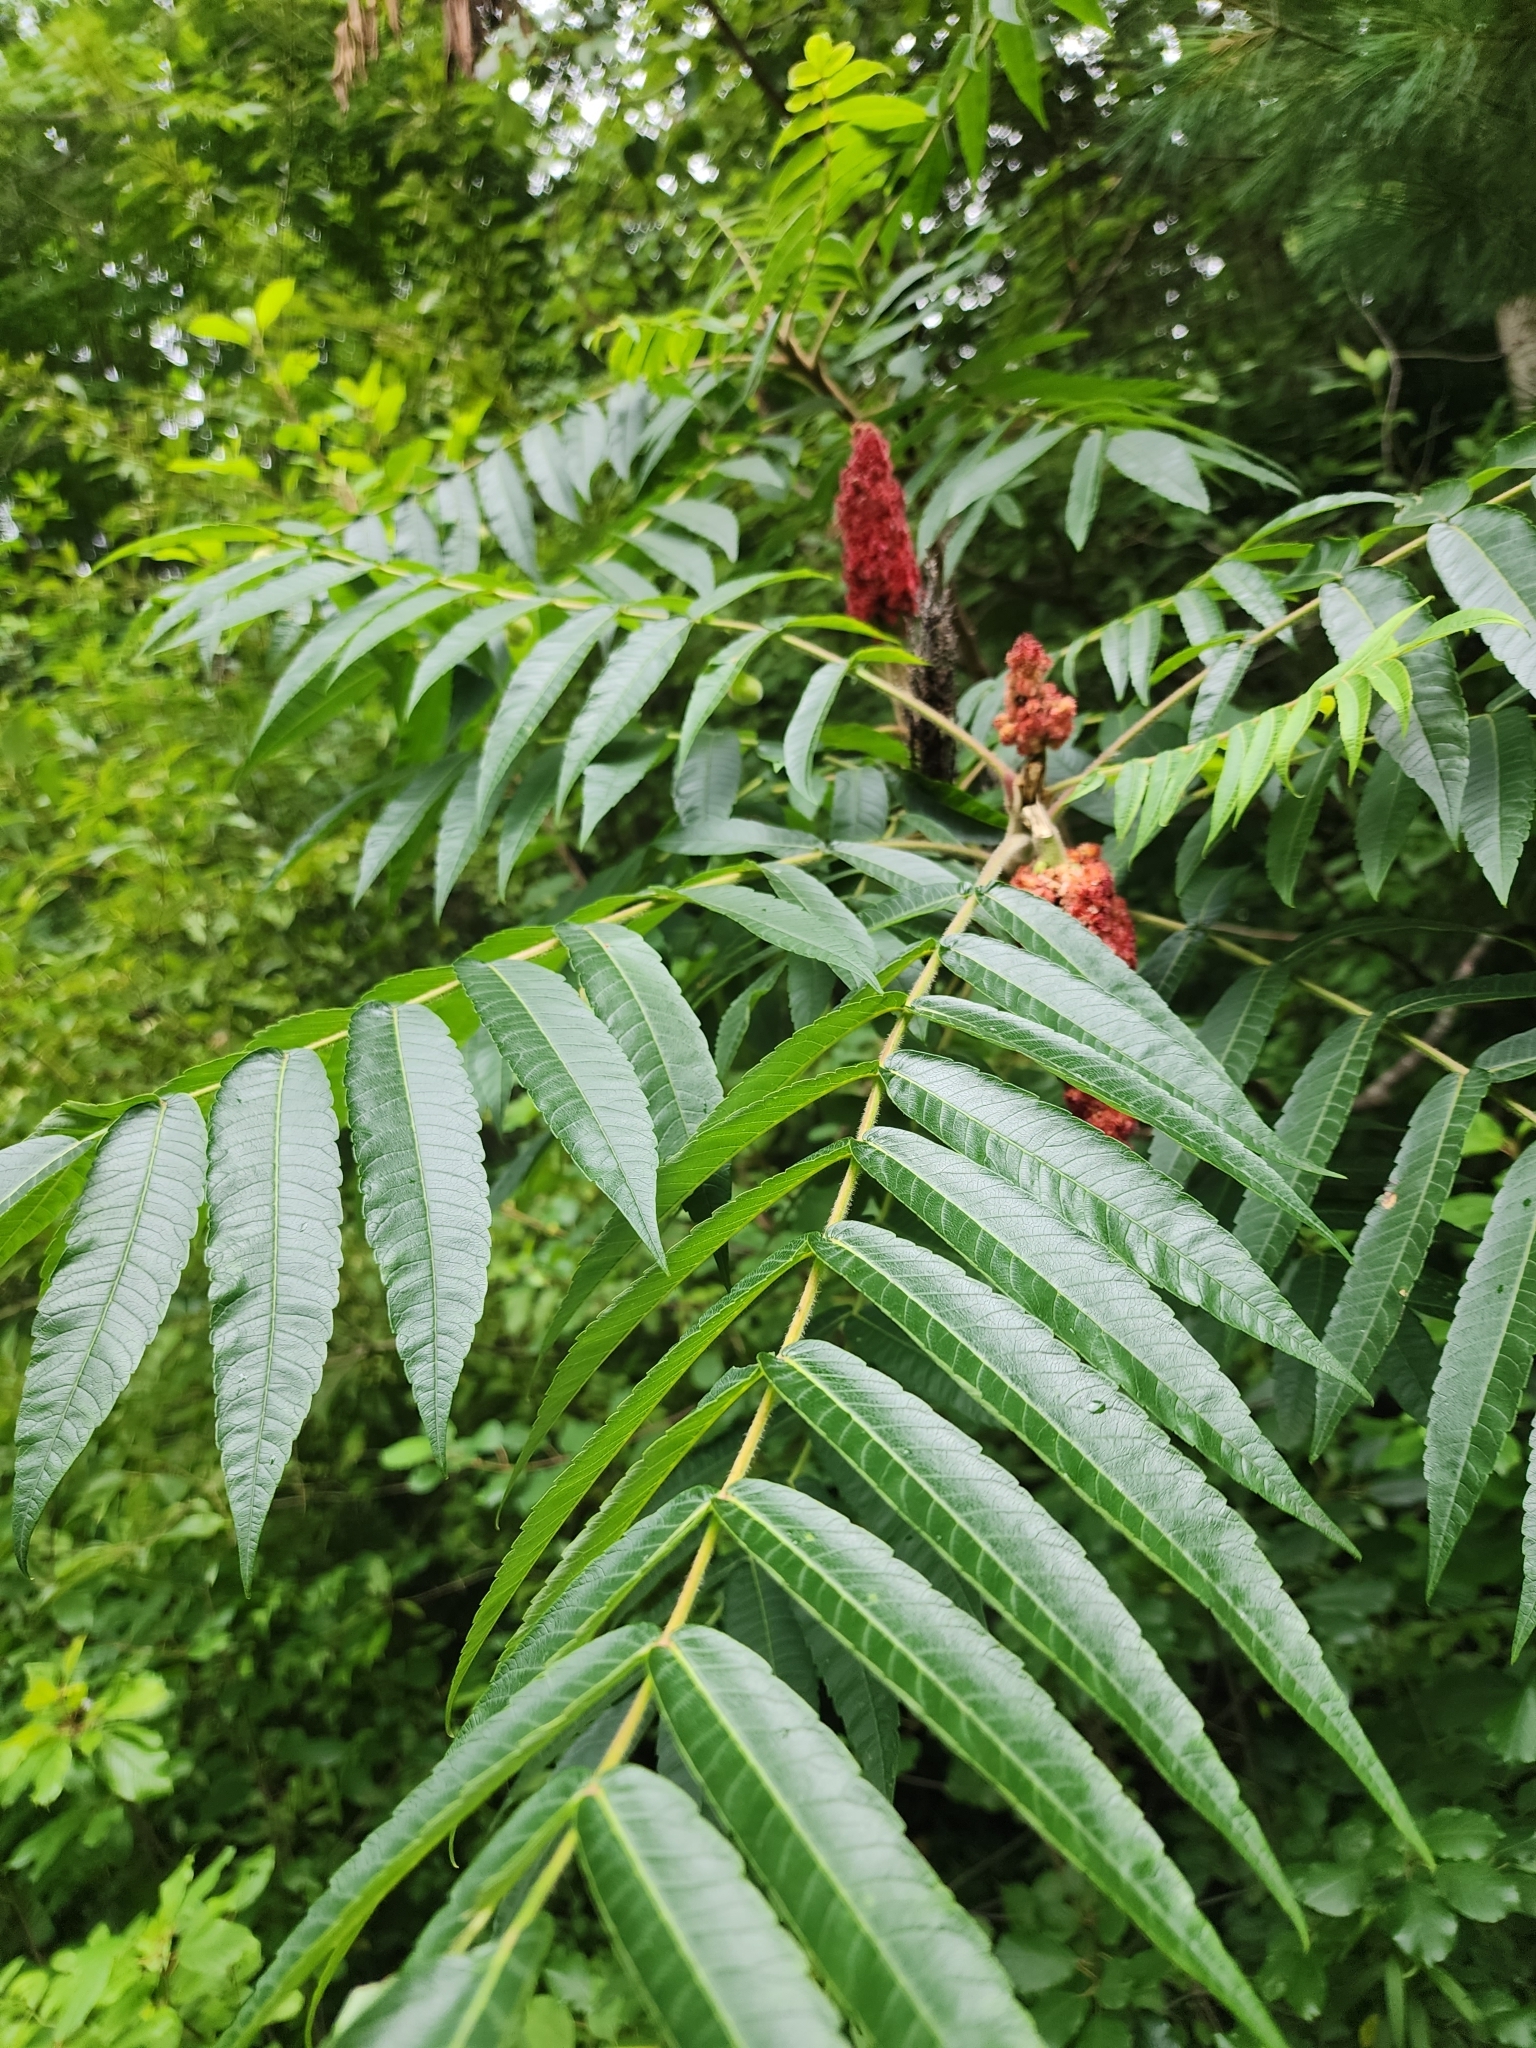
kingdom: Plantae
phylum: Tracheophyta
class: Magnoliopsida
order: Sapindales
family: Anacardiaceae
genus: Rhus
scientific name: Rhus typhina
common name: Staghorn sumac
